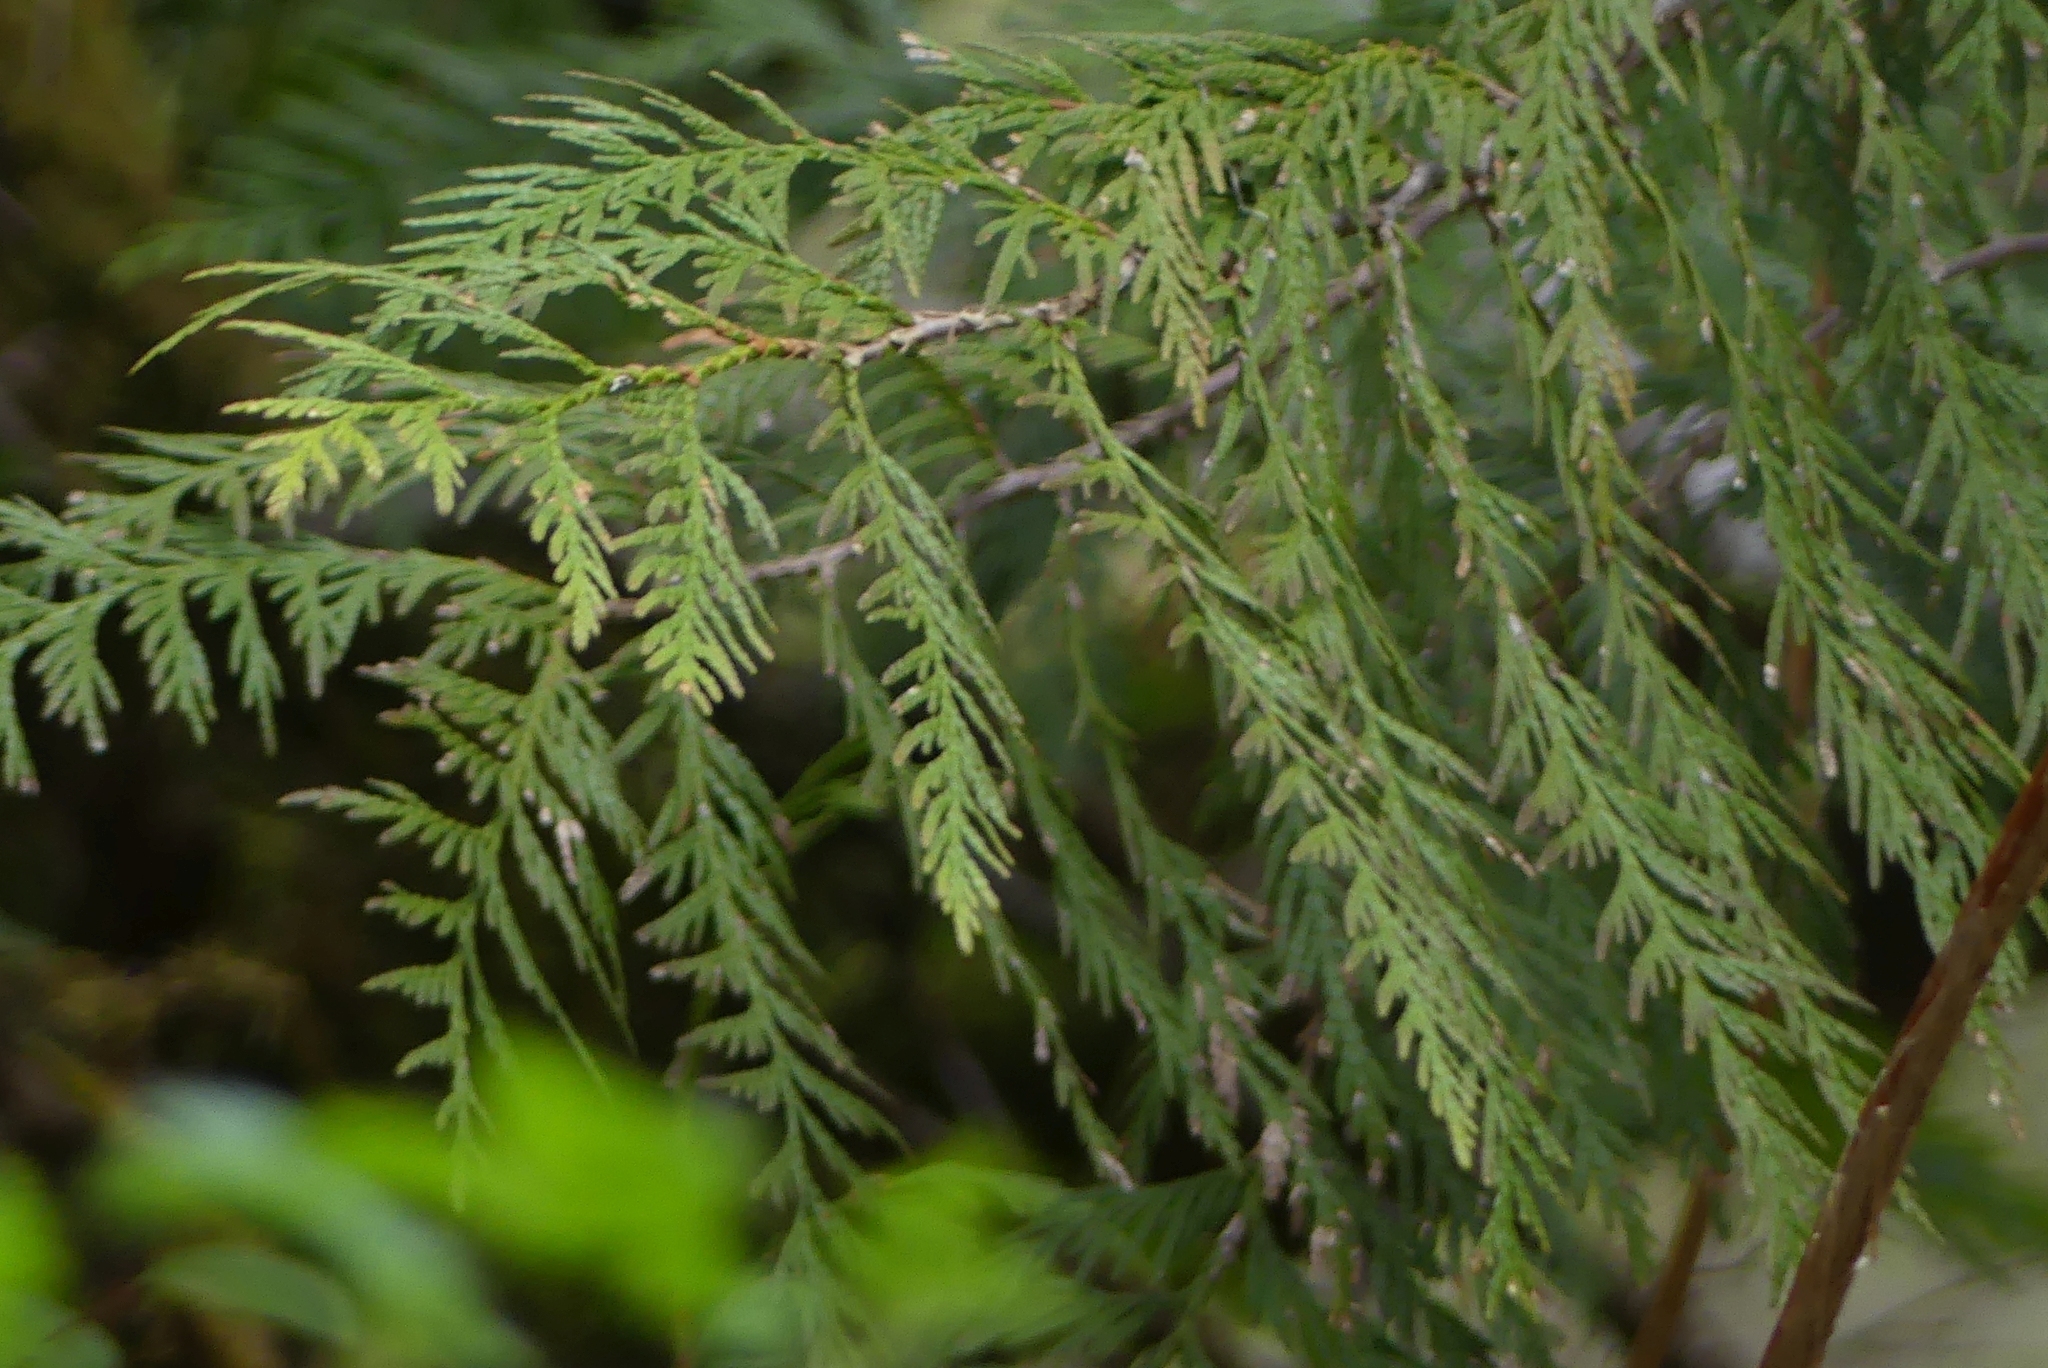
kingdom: Plantae
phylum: Tracheophyta
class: Pinopsida
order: Pinales
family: Cupressaceae
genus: Thuja
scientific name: Thuja plicata
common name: Western red-cedar
